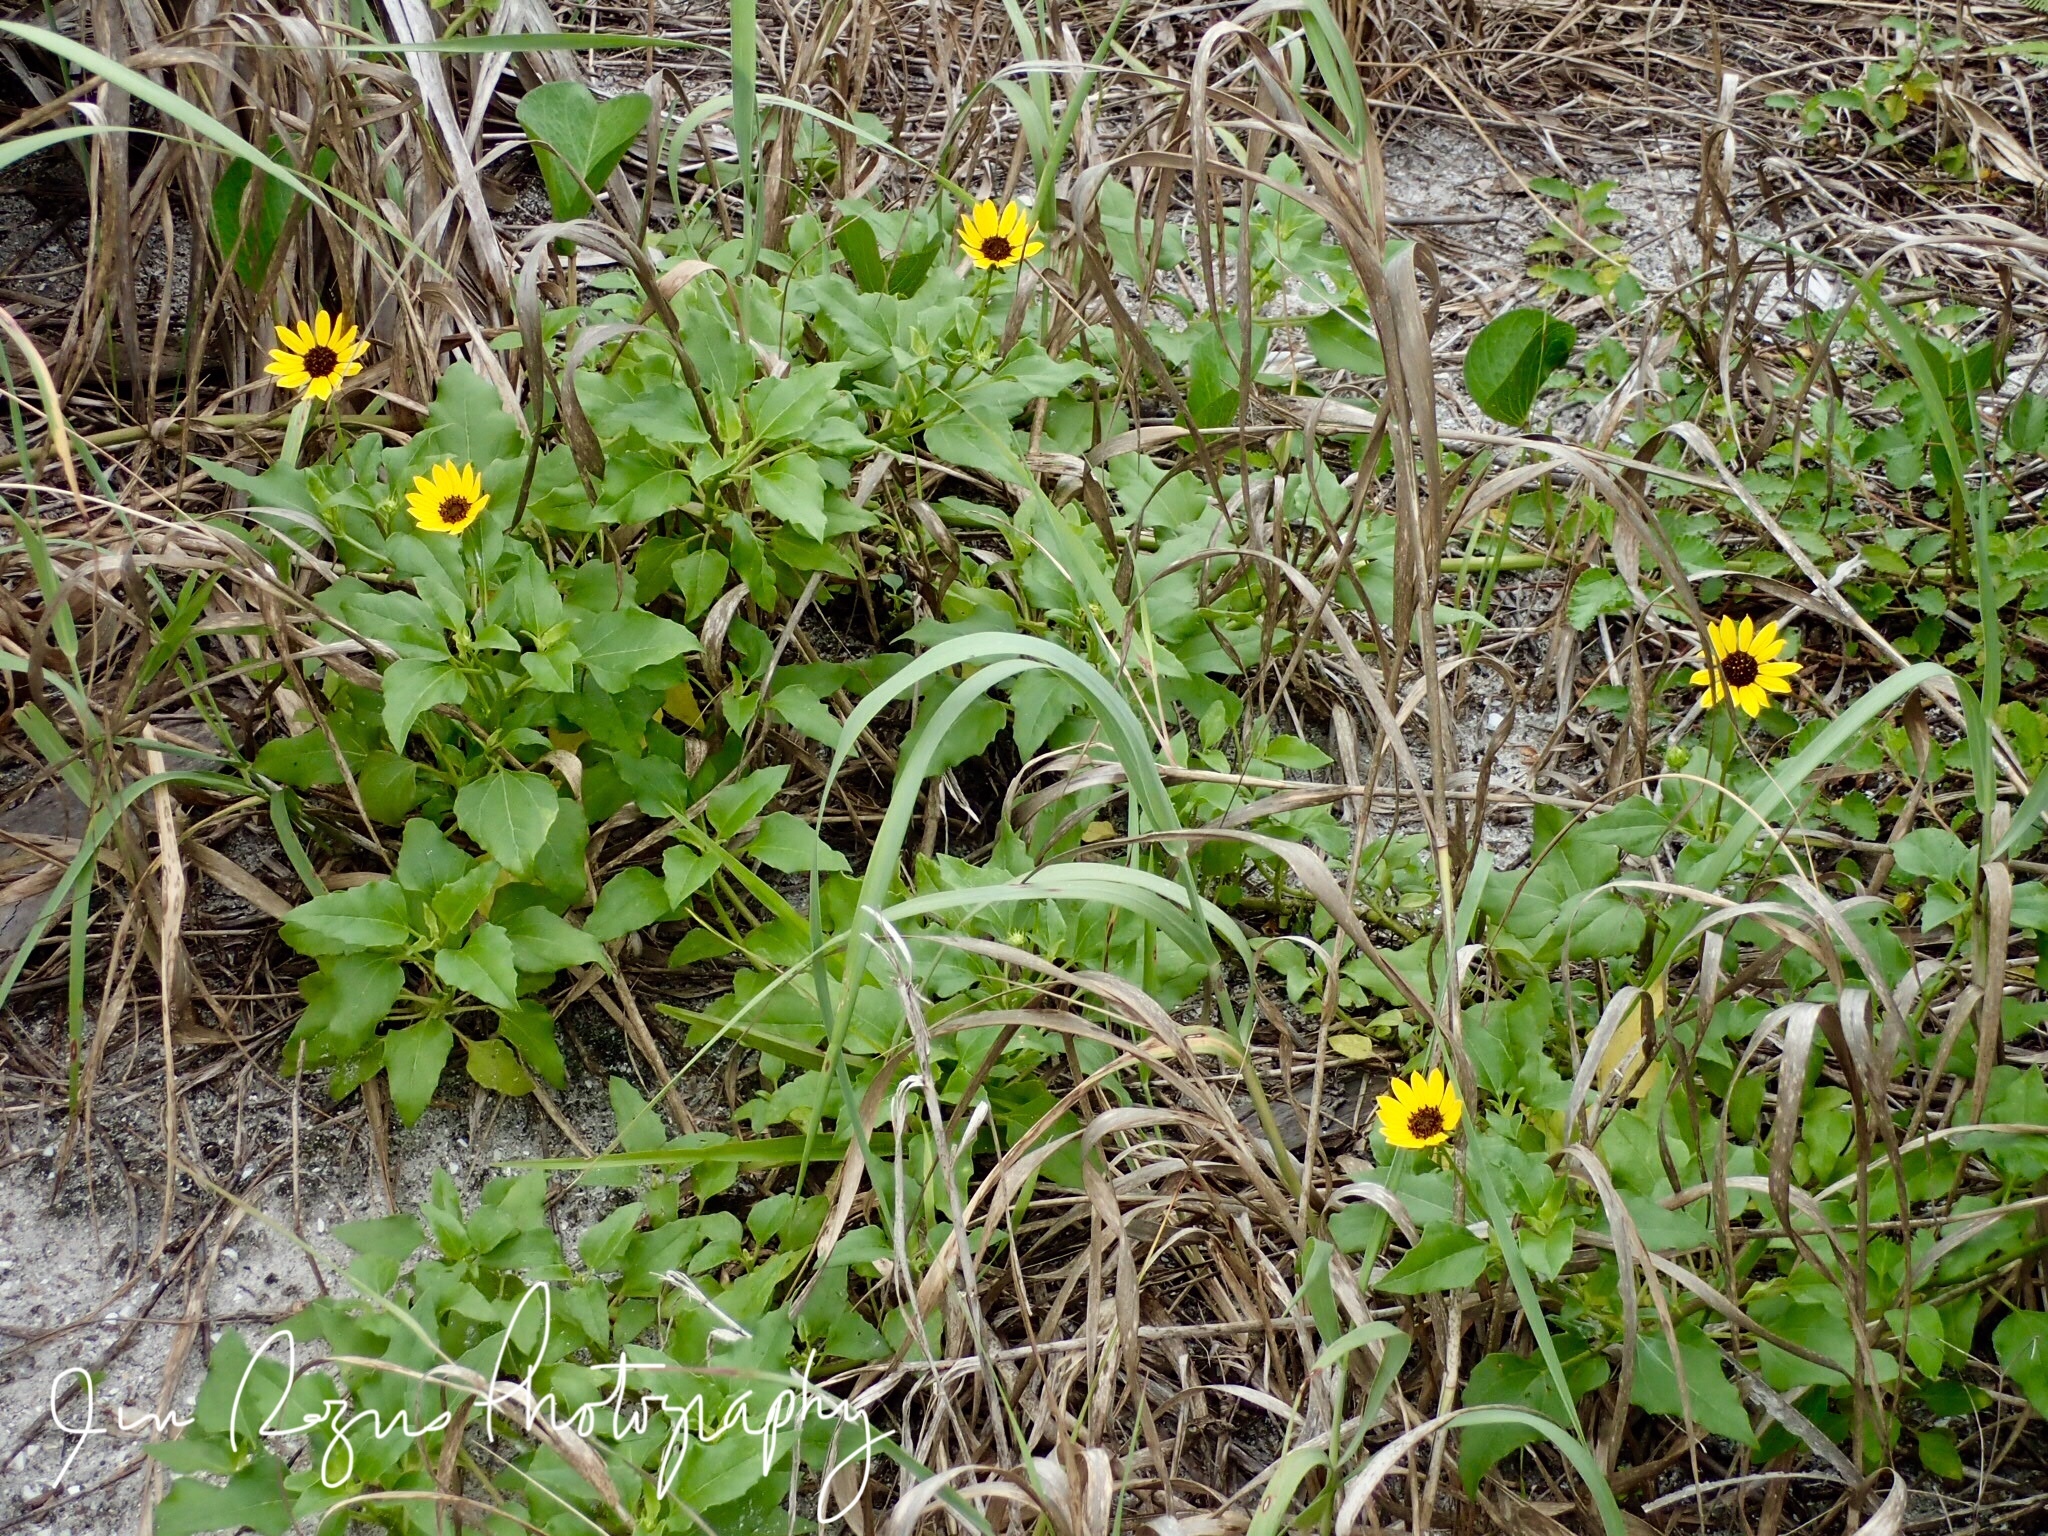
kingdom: Plantae
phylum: Tracheophyta
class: Magnoliopsida
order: Asterales
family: Asteraceae
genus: Helianthus
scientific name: Helianthus debilis
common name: Weak sunflower
